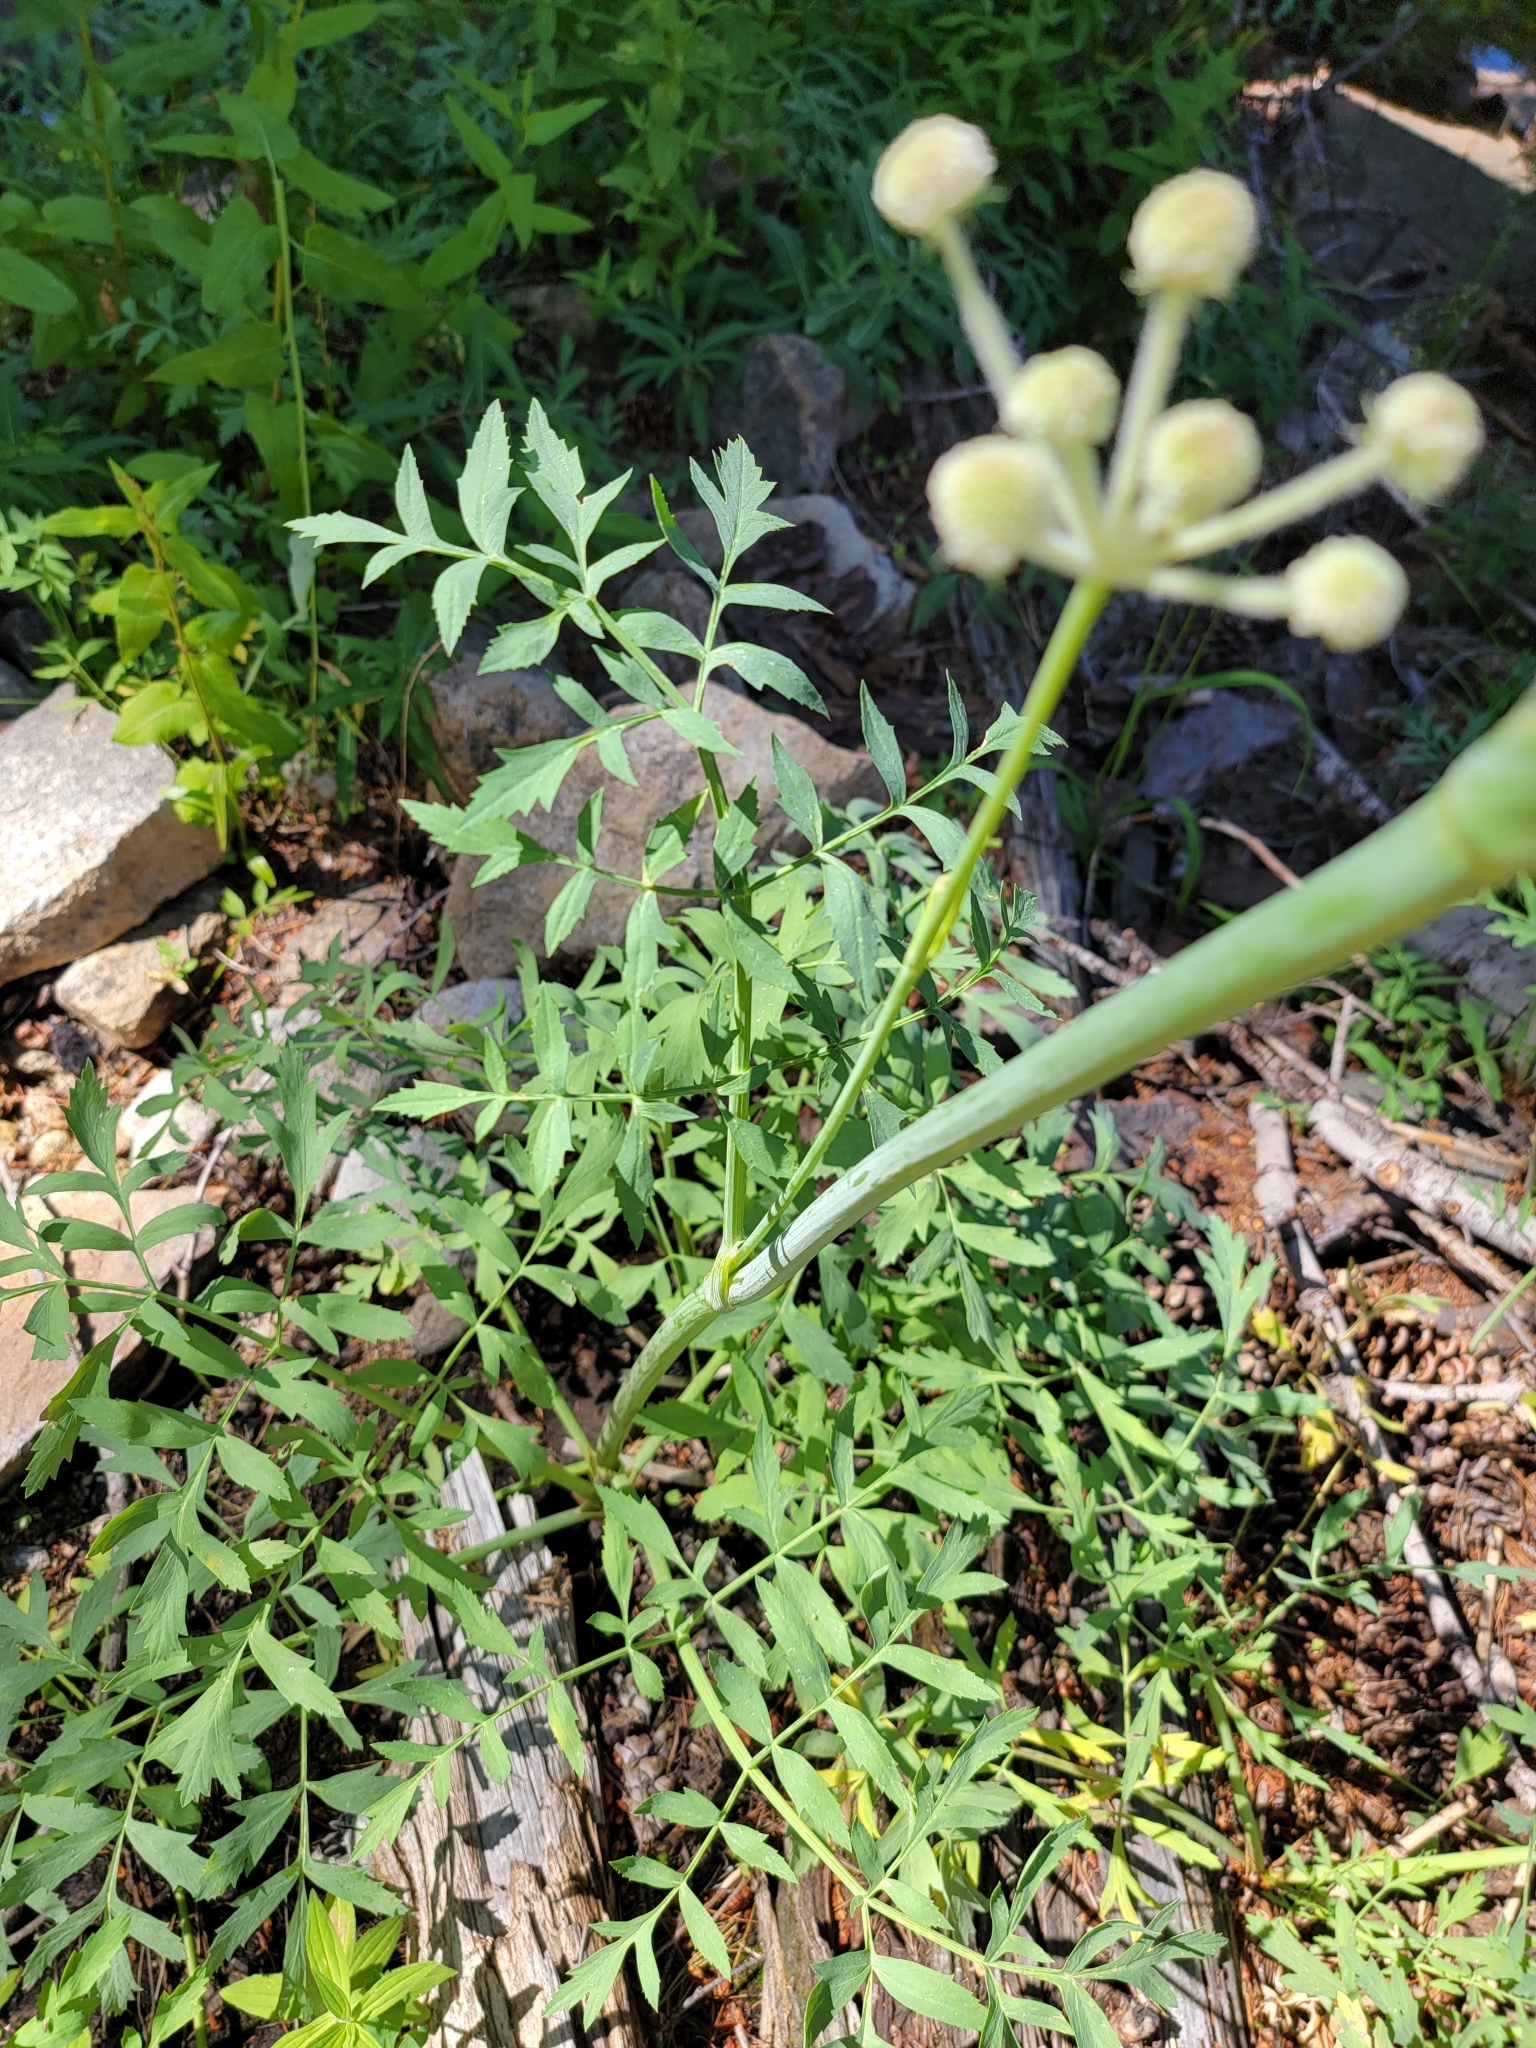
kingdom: Plantae
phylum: Tracheophyta
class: Magnoliopsida
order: Apiales
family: Apiaceae
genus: Angelica
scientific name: Angelica capitellata
